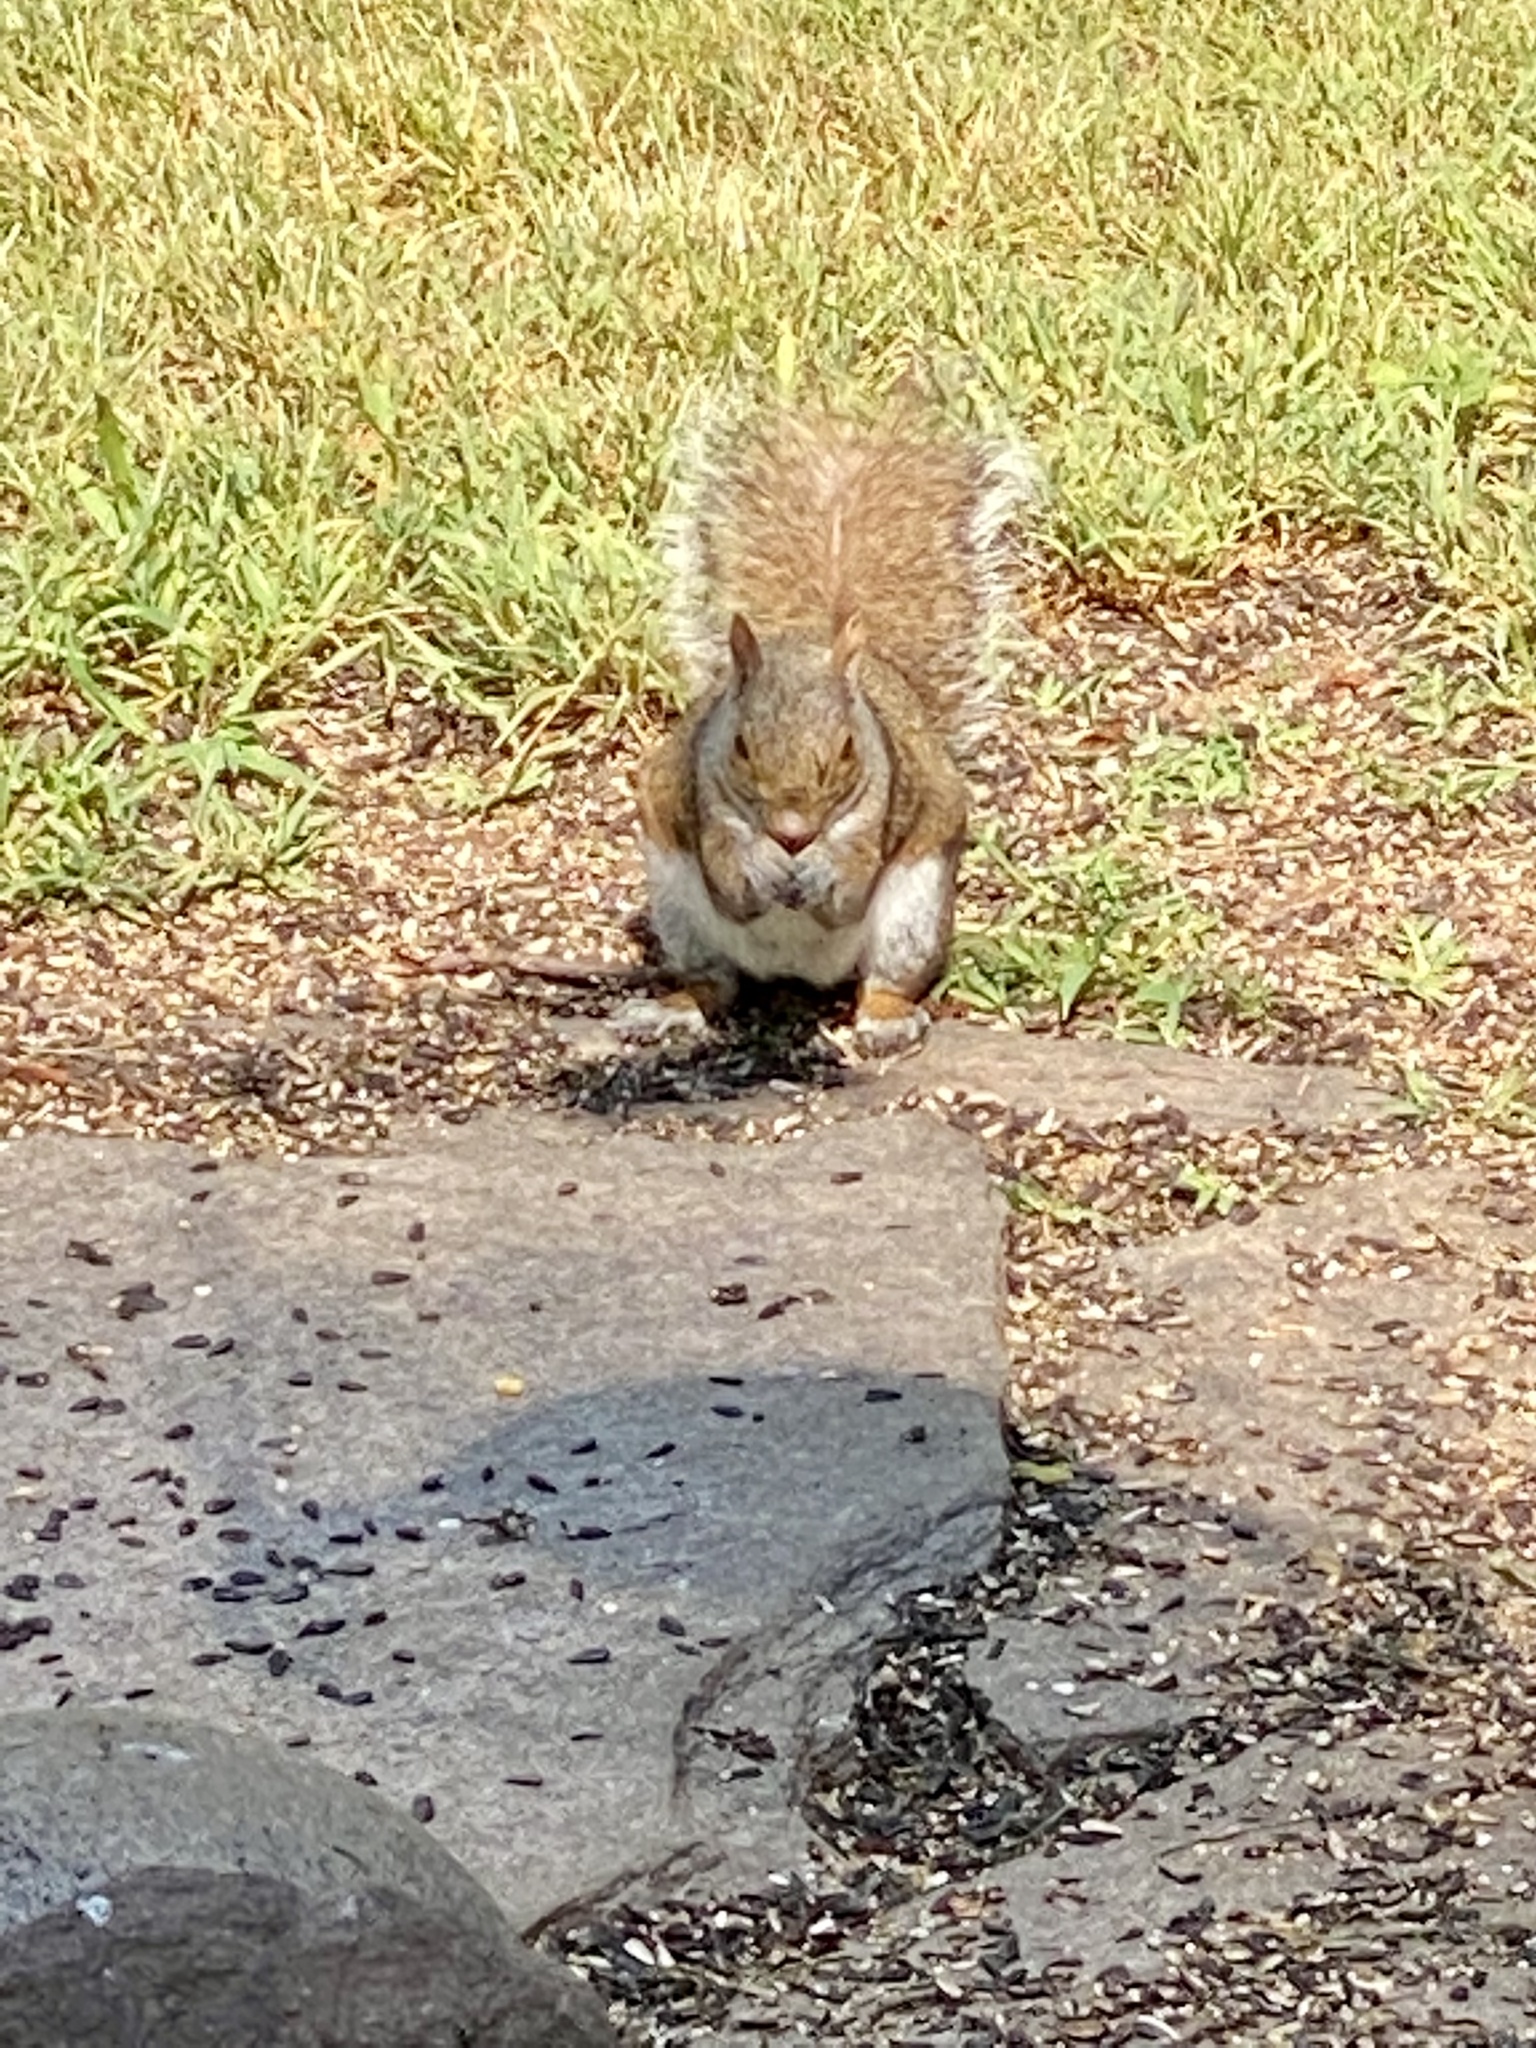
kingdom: Animalia
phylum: Chordata
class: Mammalia
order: Rodentia
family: Sciuridae
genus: Sciurus
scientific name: Sciurus carolinensis
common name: Eastern gray squirrel
